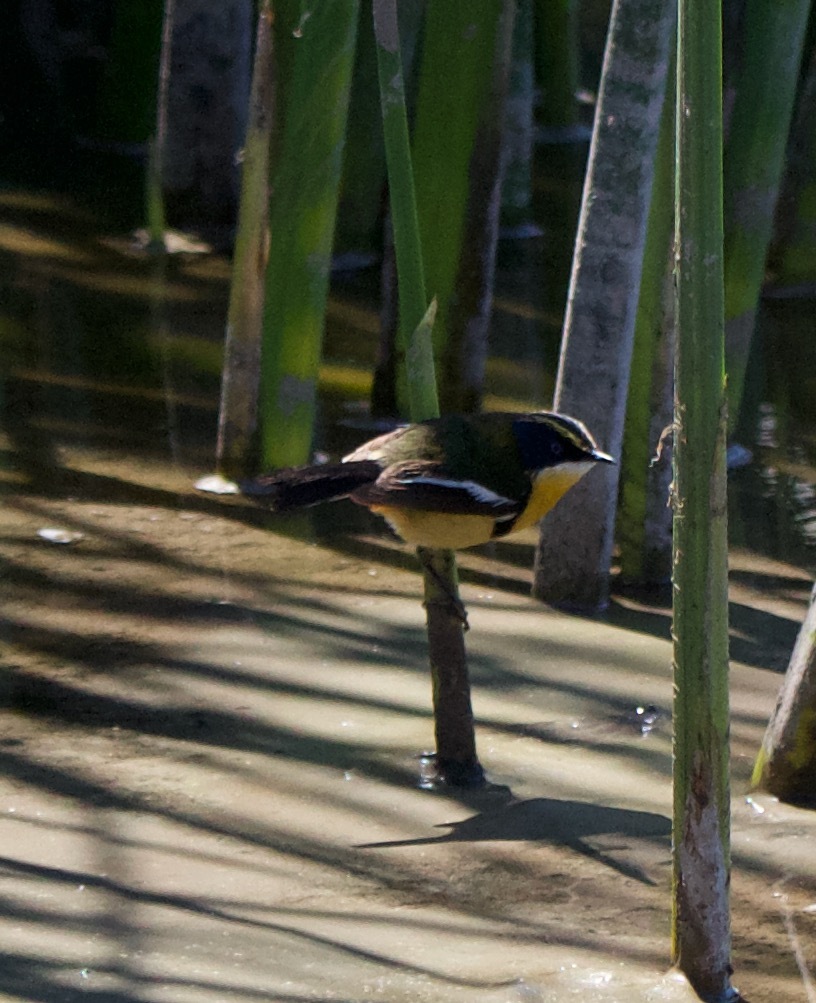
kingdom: Animalia
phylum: Chordata
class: Aves
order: Passeriformes
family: Tyrannidae
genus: Tachuris
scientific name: Tachuris rubrigastra
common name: Many-colored rush tyrant
